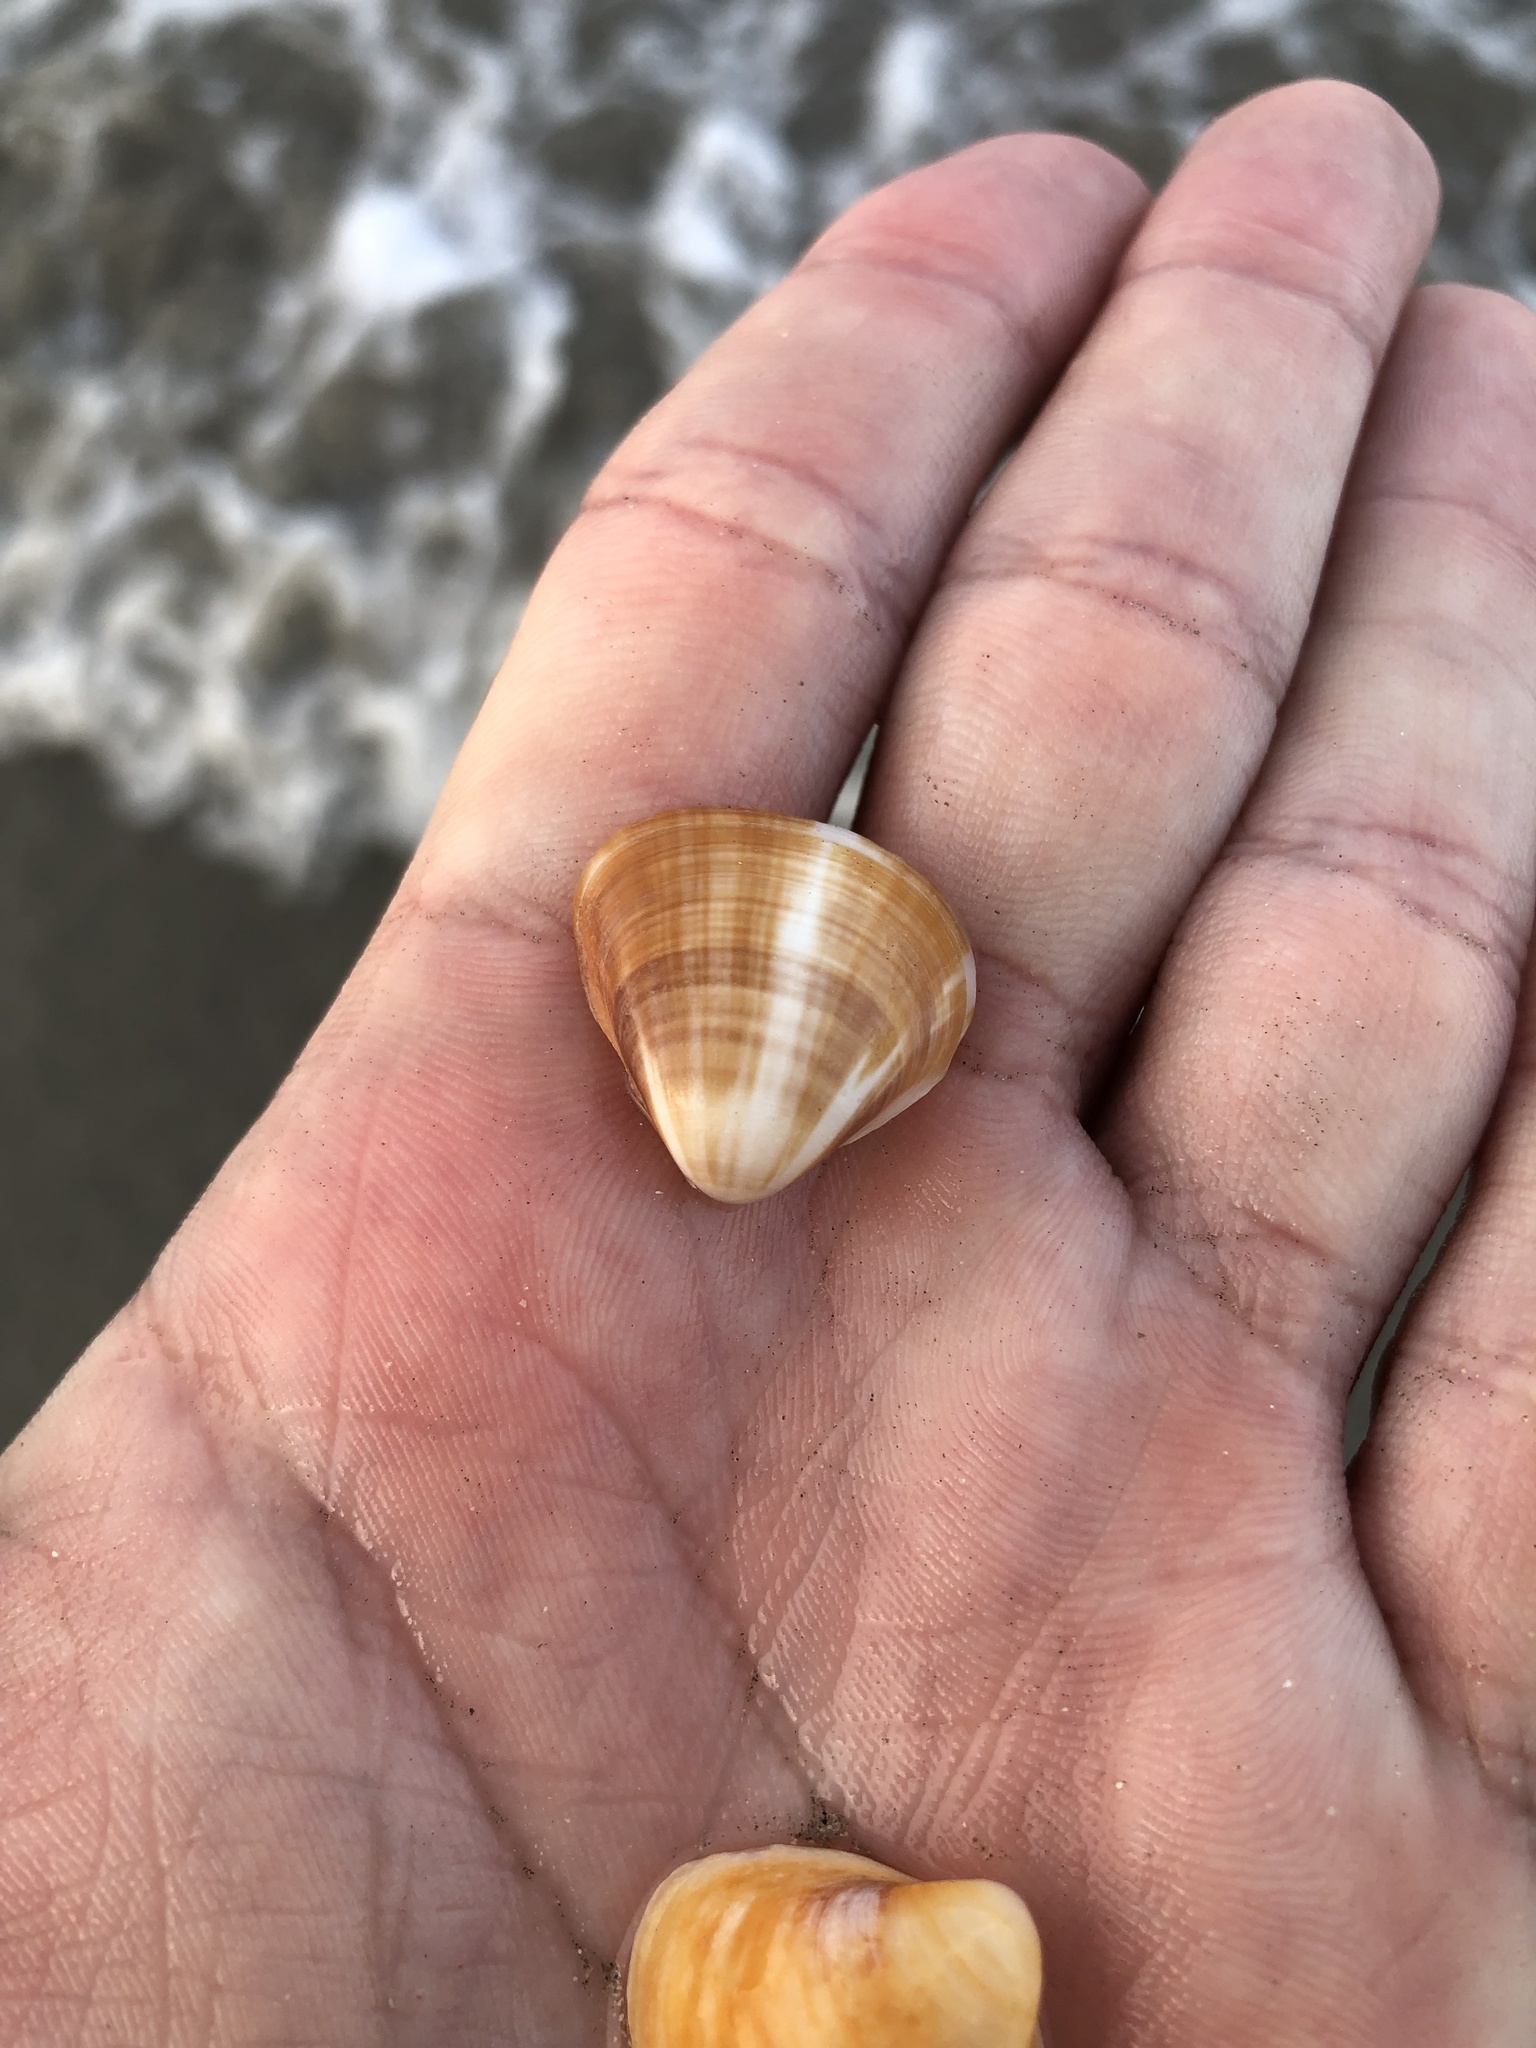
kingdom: Animalia
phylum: Mollusca
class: Bivalvia
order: Venerida
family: Veneridae
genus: Tivela
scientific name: Tivela mactroides
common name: Trigonal tivela
